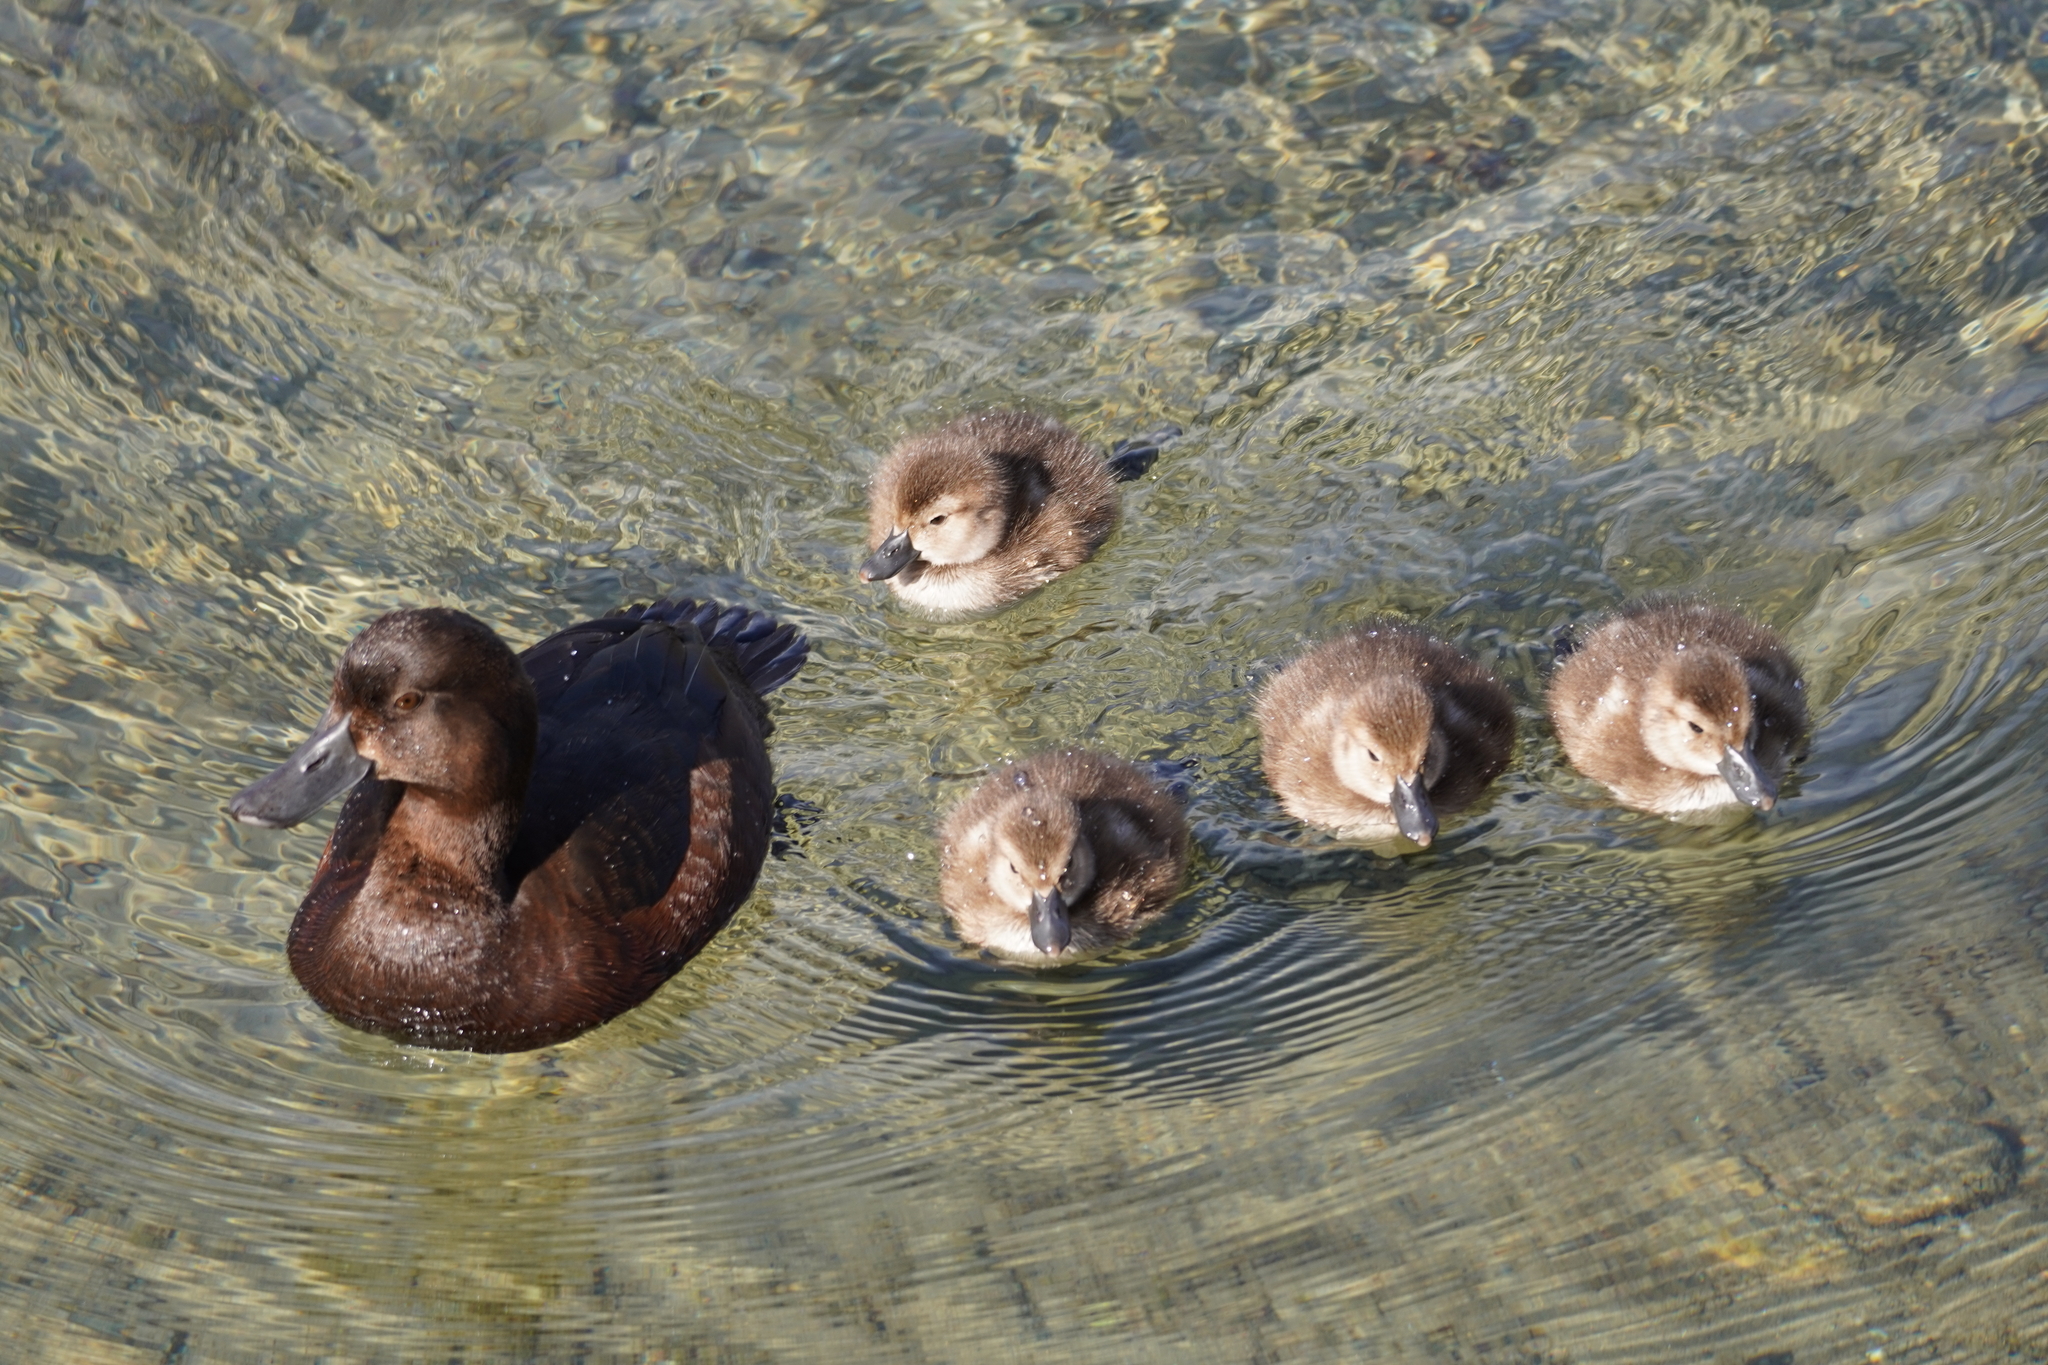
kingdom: Animalia
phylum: Chordata
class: Aves
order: Anseriformes
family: Anatidae
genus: Aythya
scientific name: Aythya novaeseelandiae
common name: New zealand scaup
